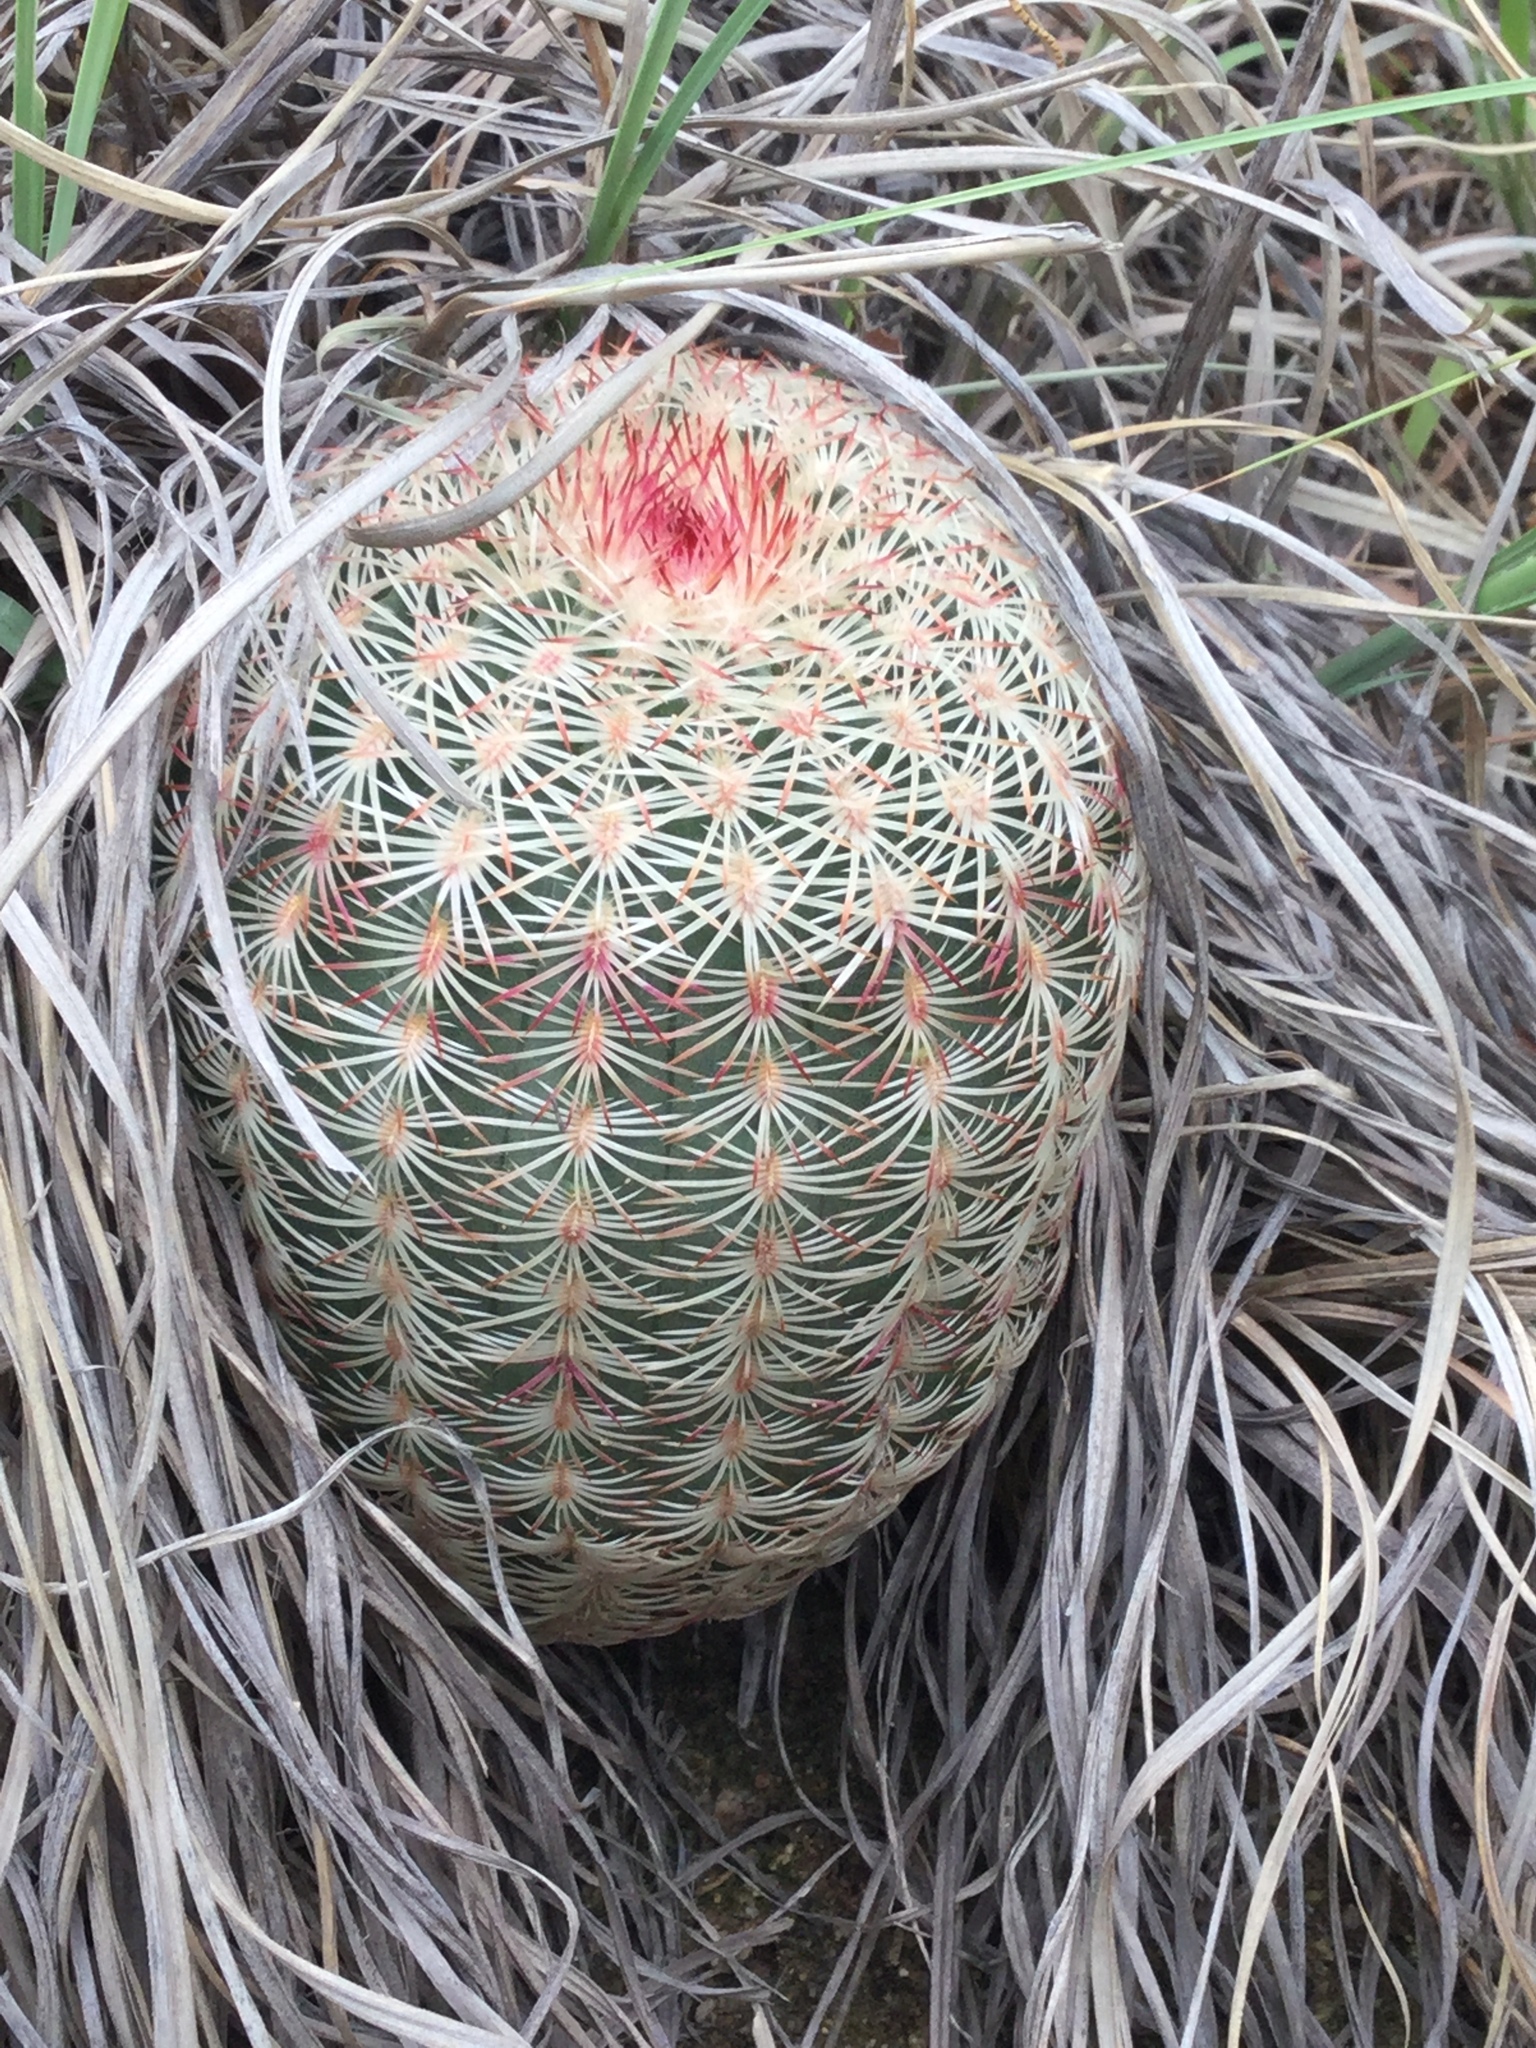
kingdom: Plantae
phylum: Tracheophyta
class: Magnoliopsida
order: Caryophyllales
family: Cactaceae
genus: Echinocereus
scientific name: Echinocereus rigidissimus
